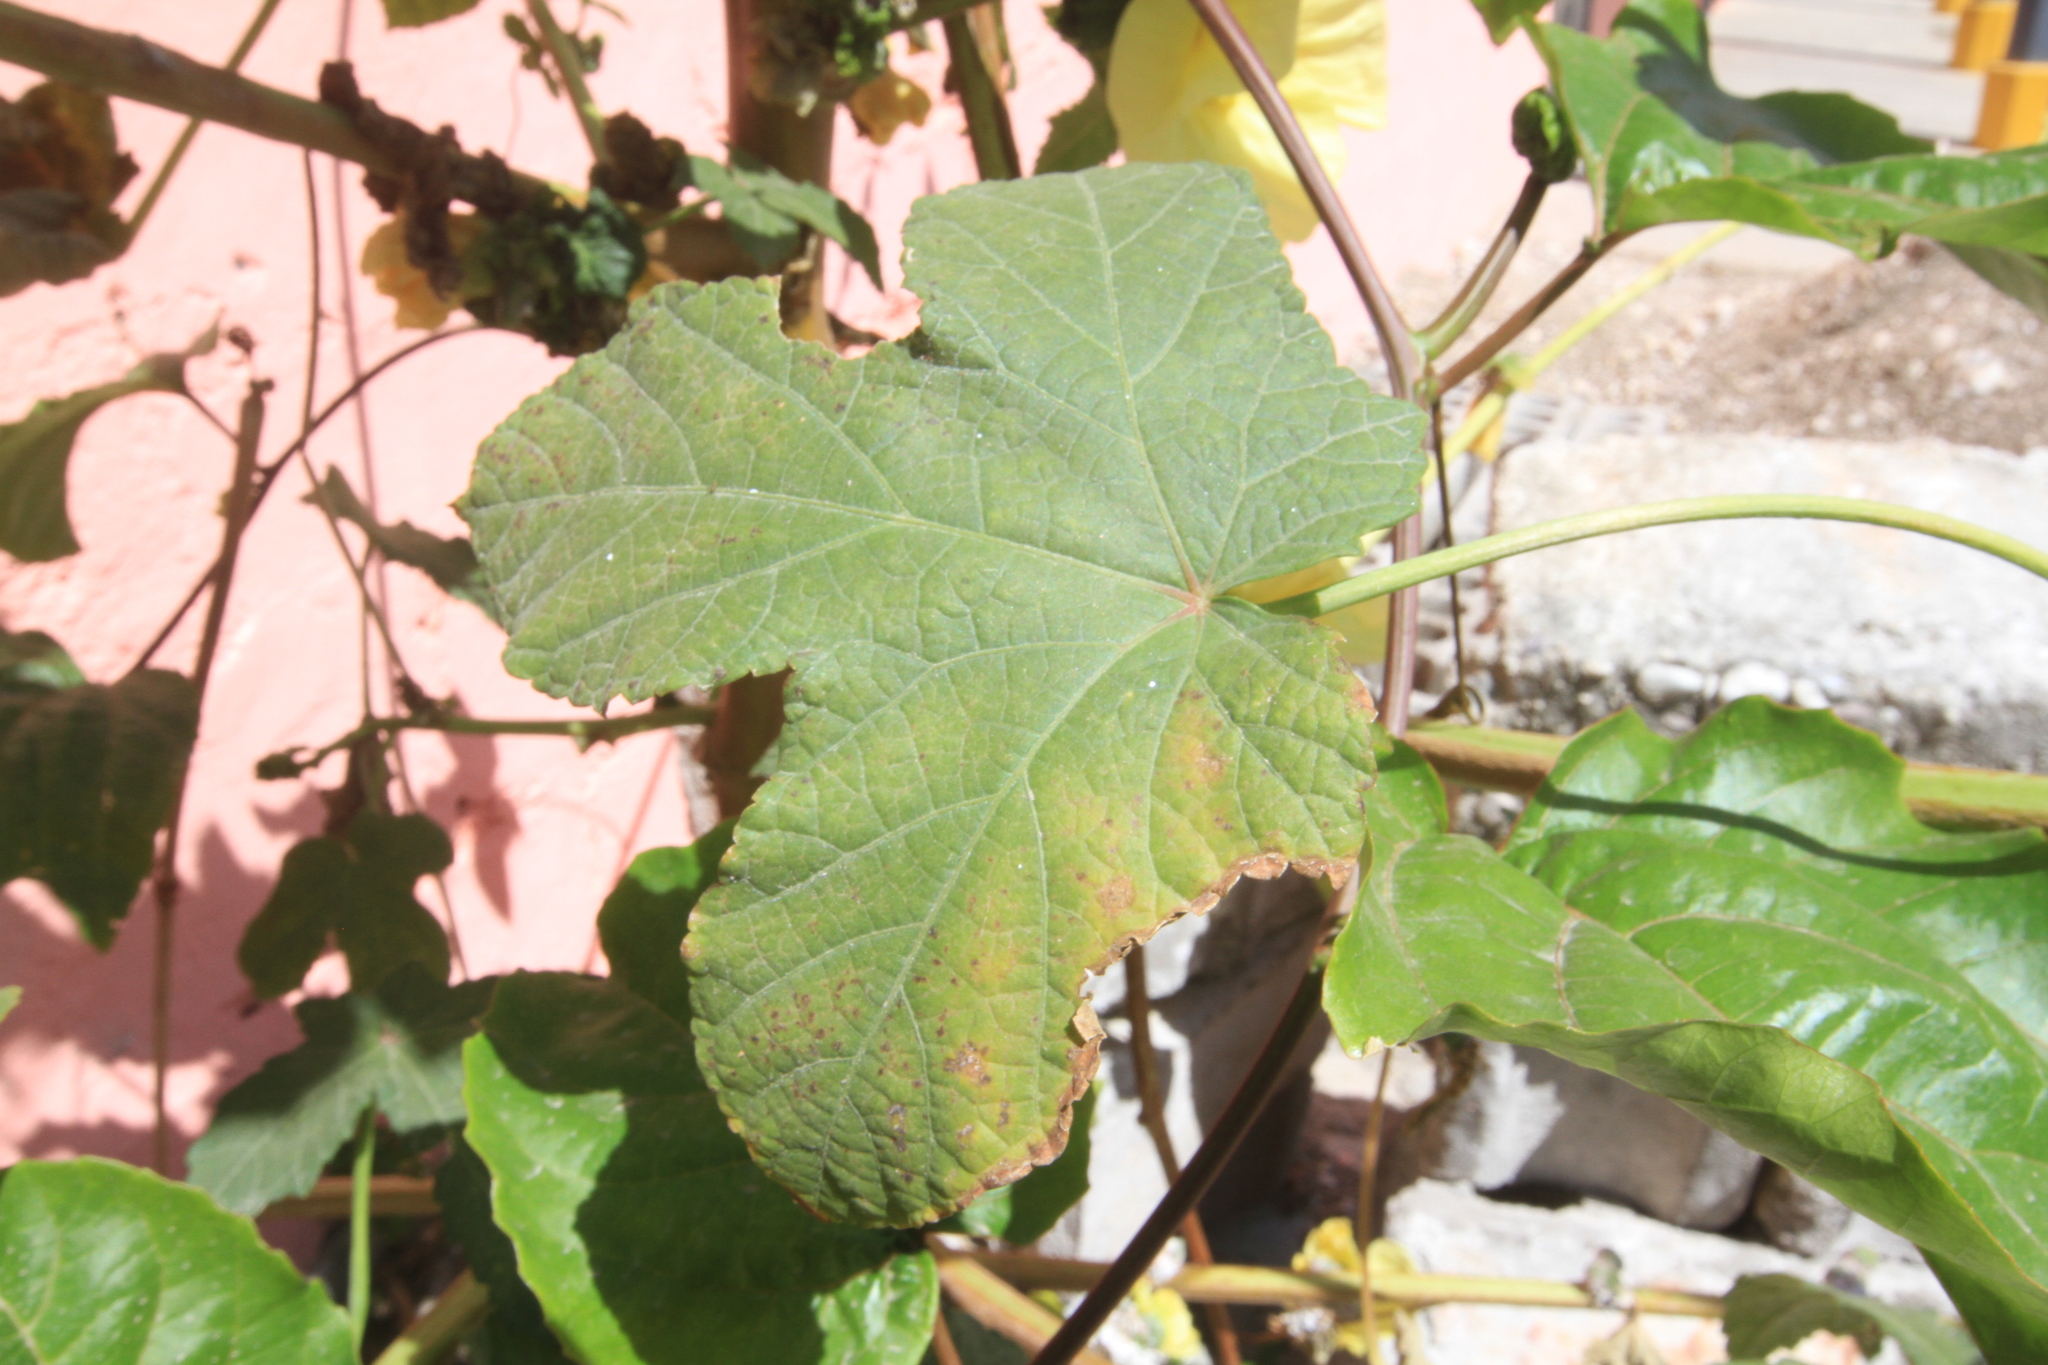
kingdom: Plantae
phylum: Tracheophyta
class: Magnoliopsida
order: Malvales
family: Malvaceae
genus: Abelmoschus
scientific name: Abelmoschus esculentus
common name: Okra
